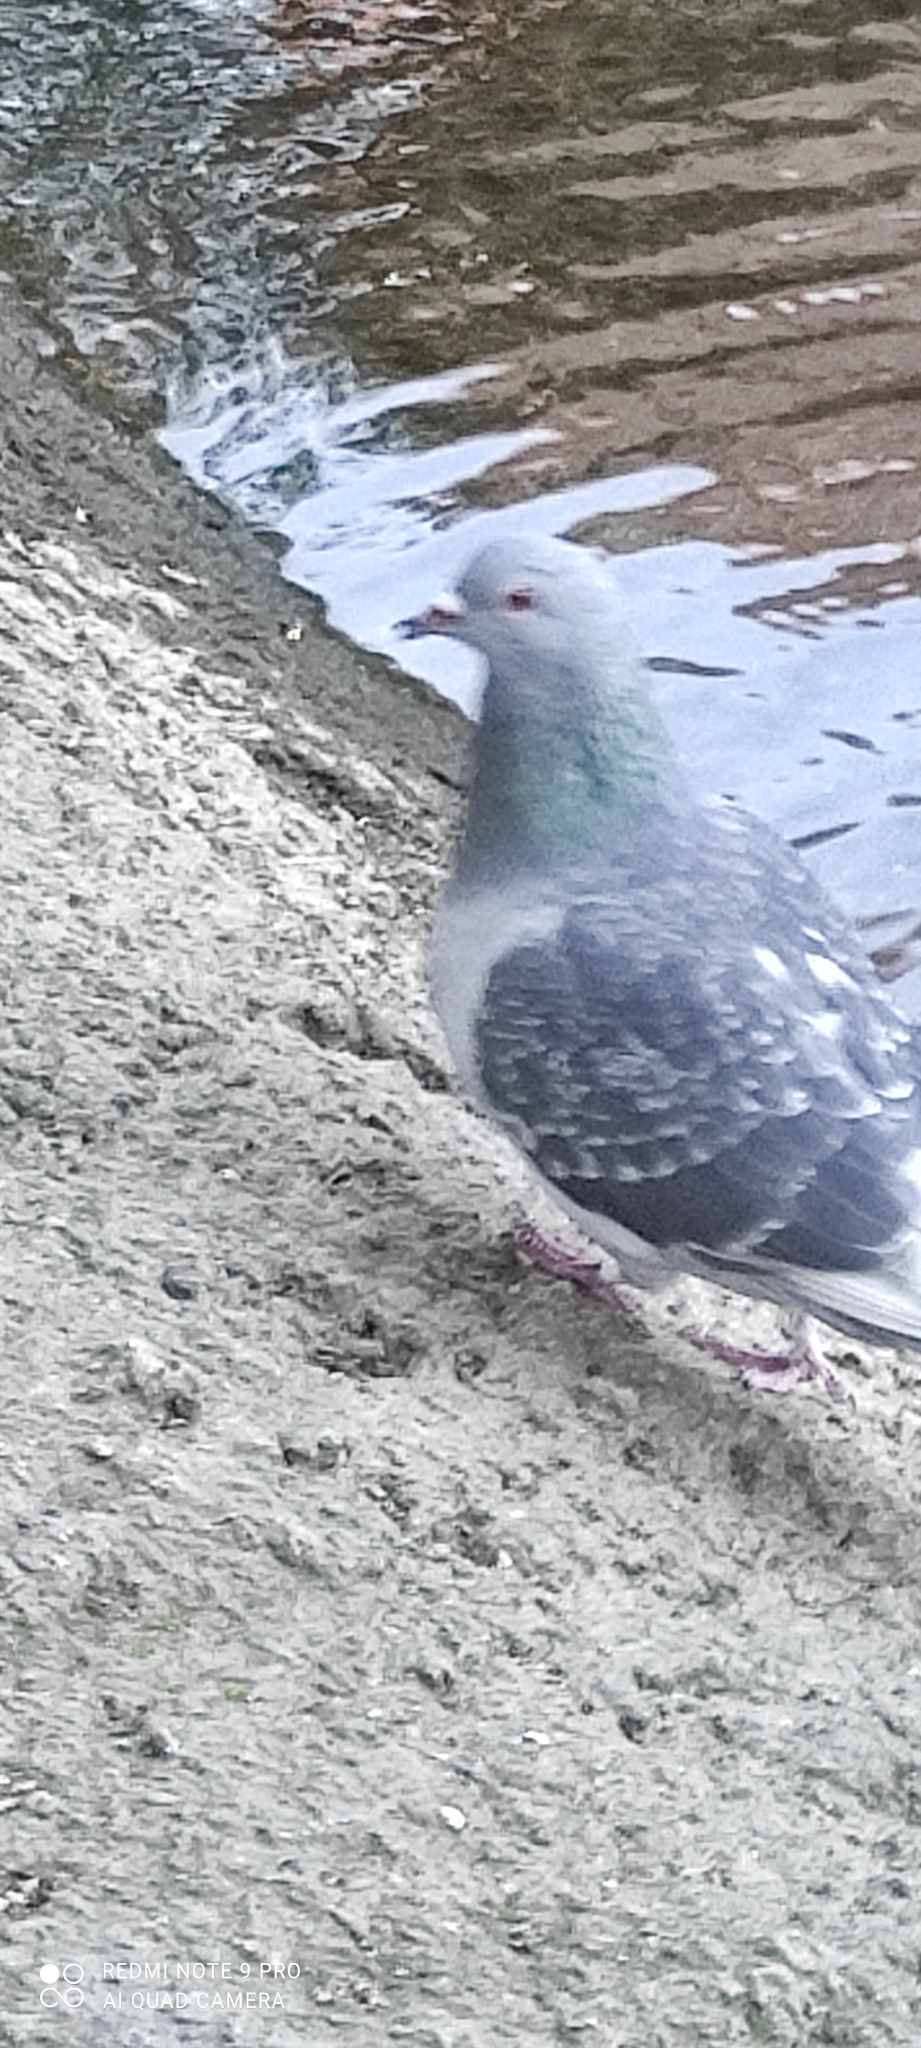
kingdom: Animalia
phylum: Chordata
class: Aves
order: Columbiformes
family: Columbidae
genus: Columba
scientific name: Columba livia
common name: Rock pigeon
